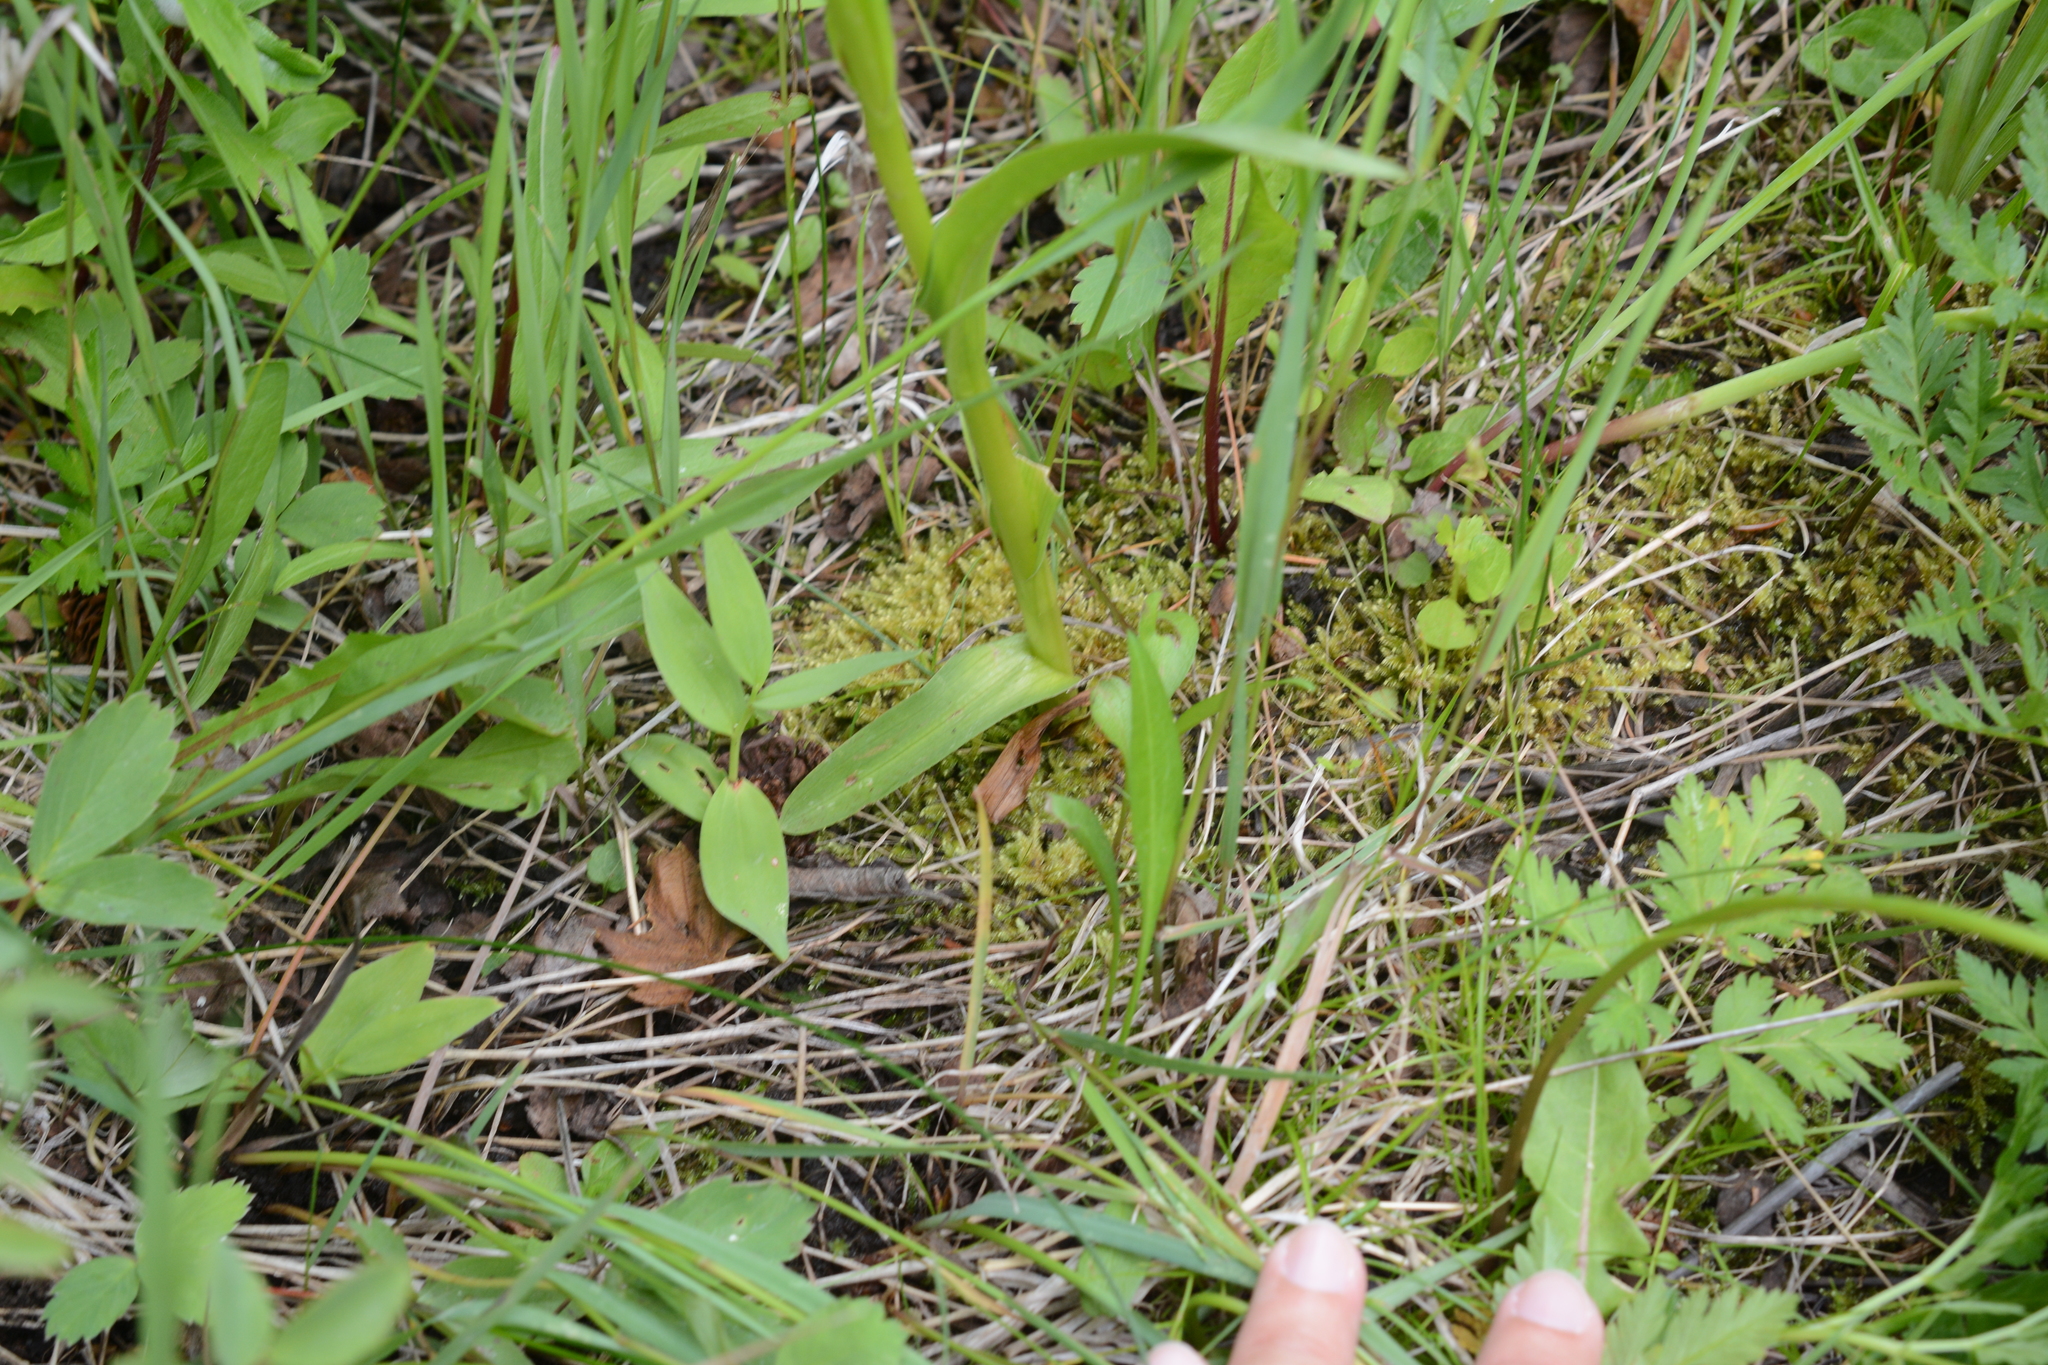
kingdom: Plantae
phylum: Tracheophyta
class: Liliopsida
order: Asparagales
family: Orchidaceae
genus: Platanthera
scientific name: Platanthera dilatata
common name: Bog candles
